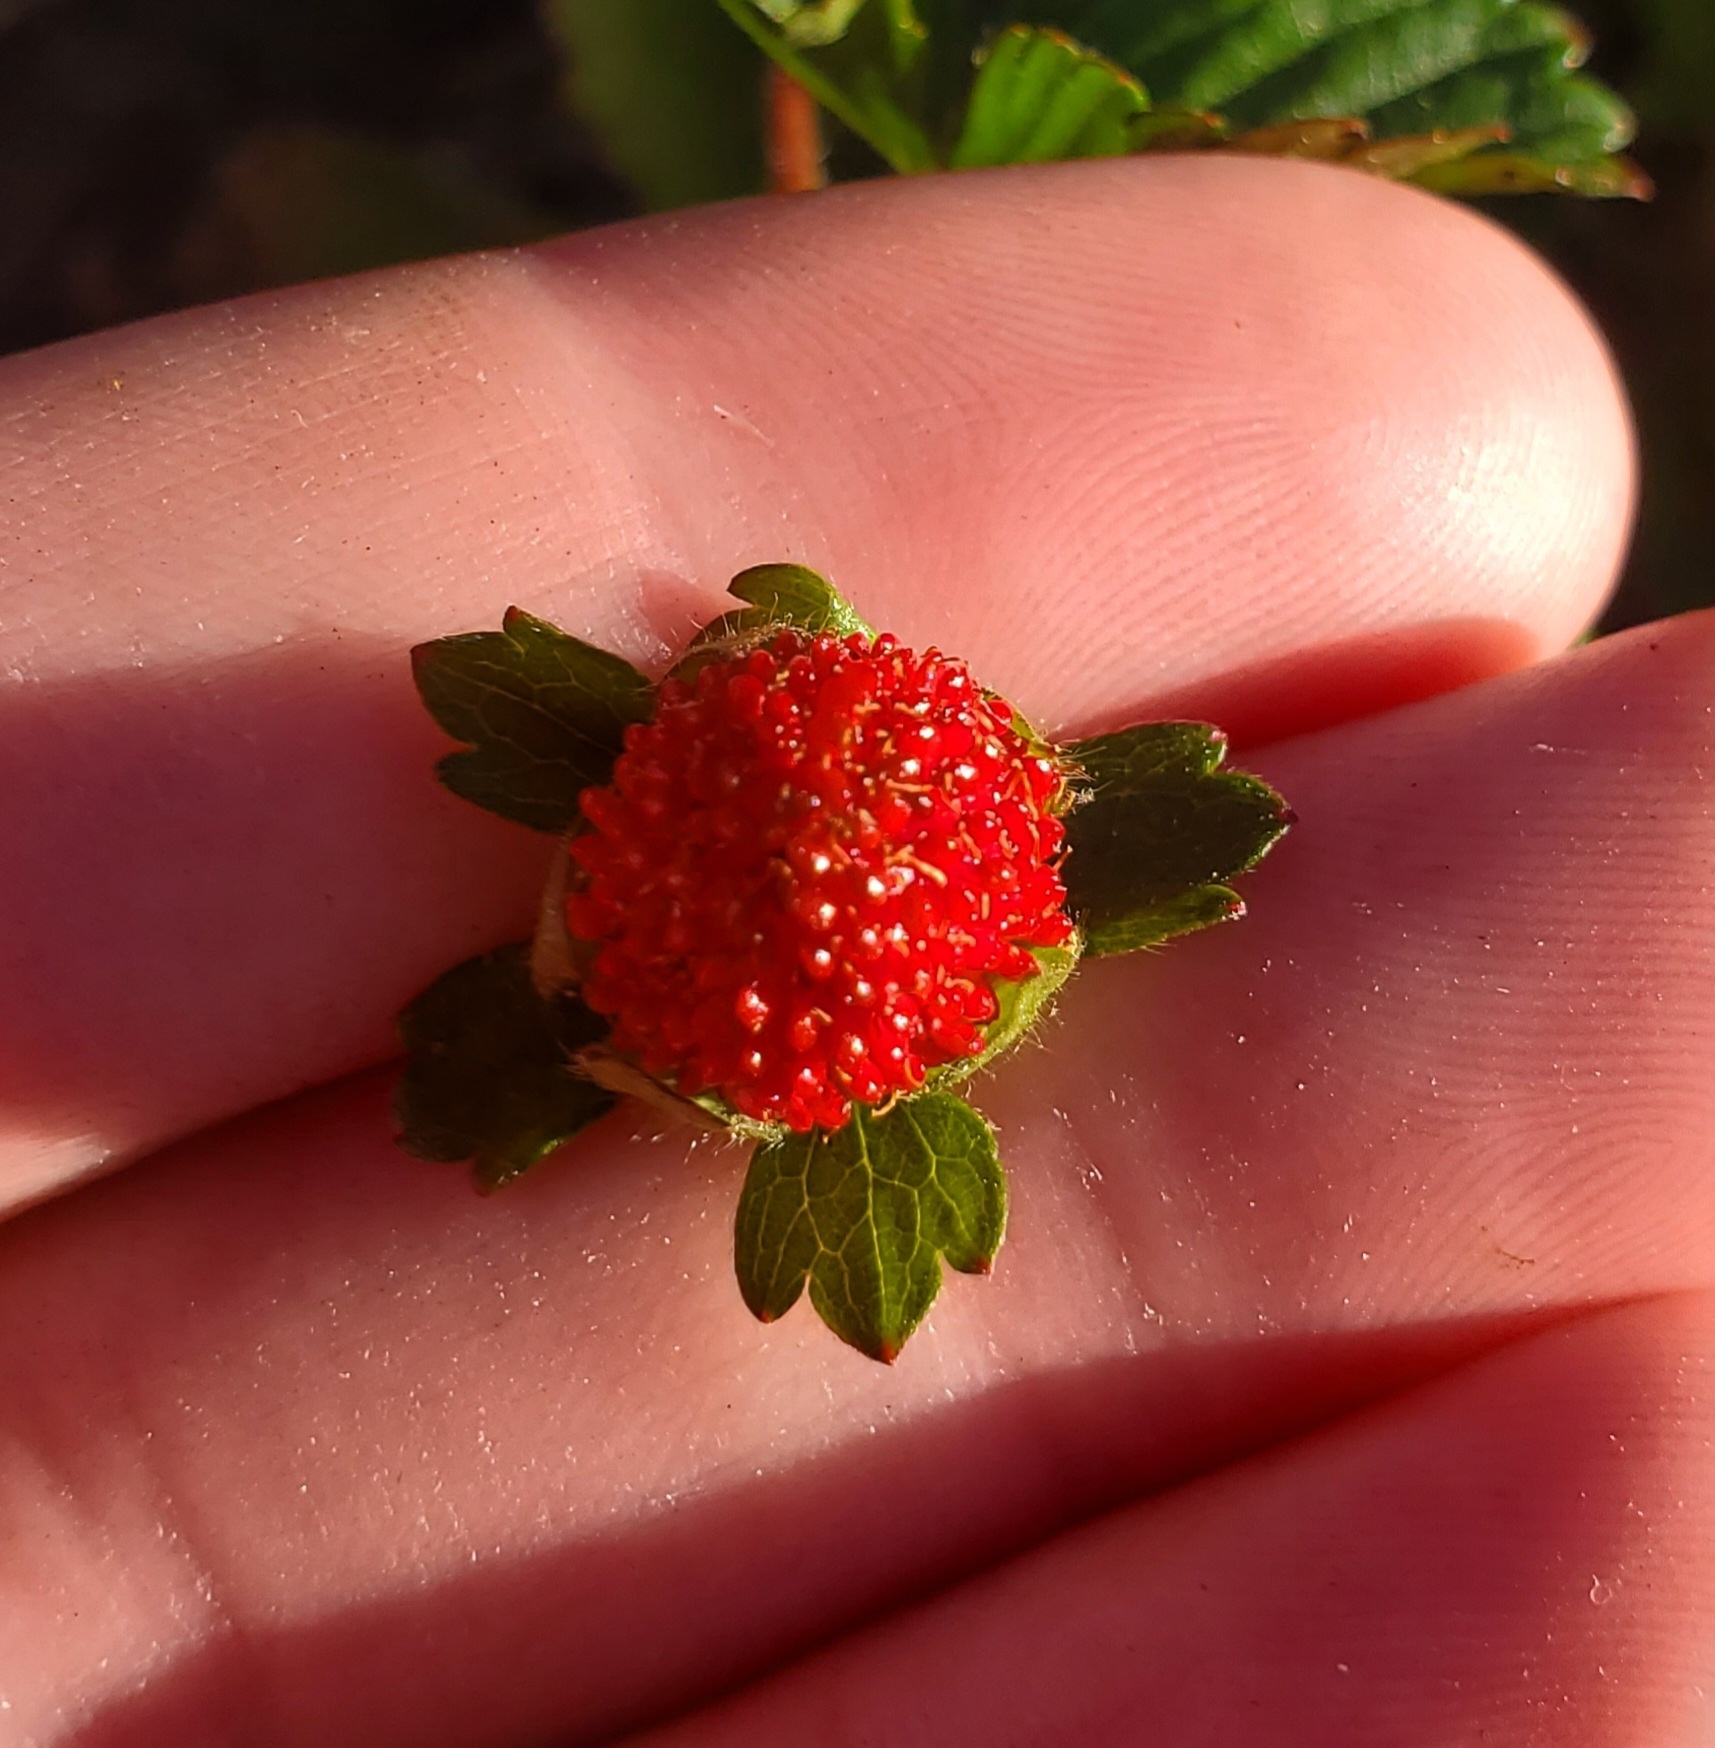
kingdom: Plantae
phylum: Tracheophyta
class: Magnoliopsida
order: Rosales
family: Rosaceae
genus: Potentilla
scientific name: Potentilla indica
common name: Yellow-flowered strawberry
